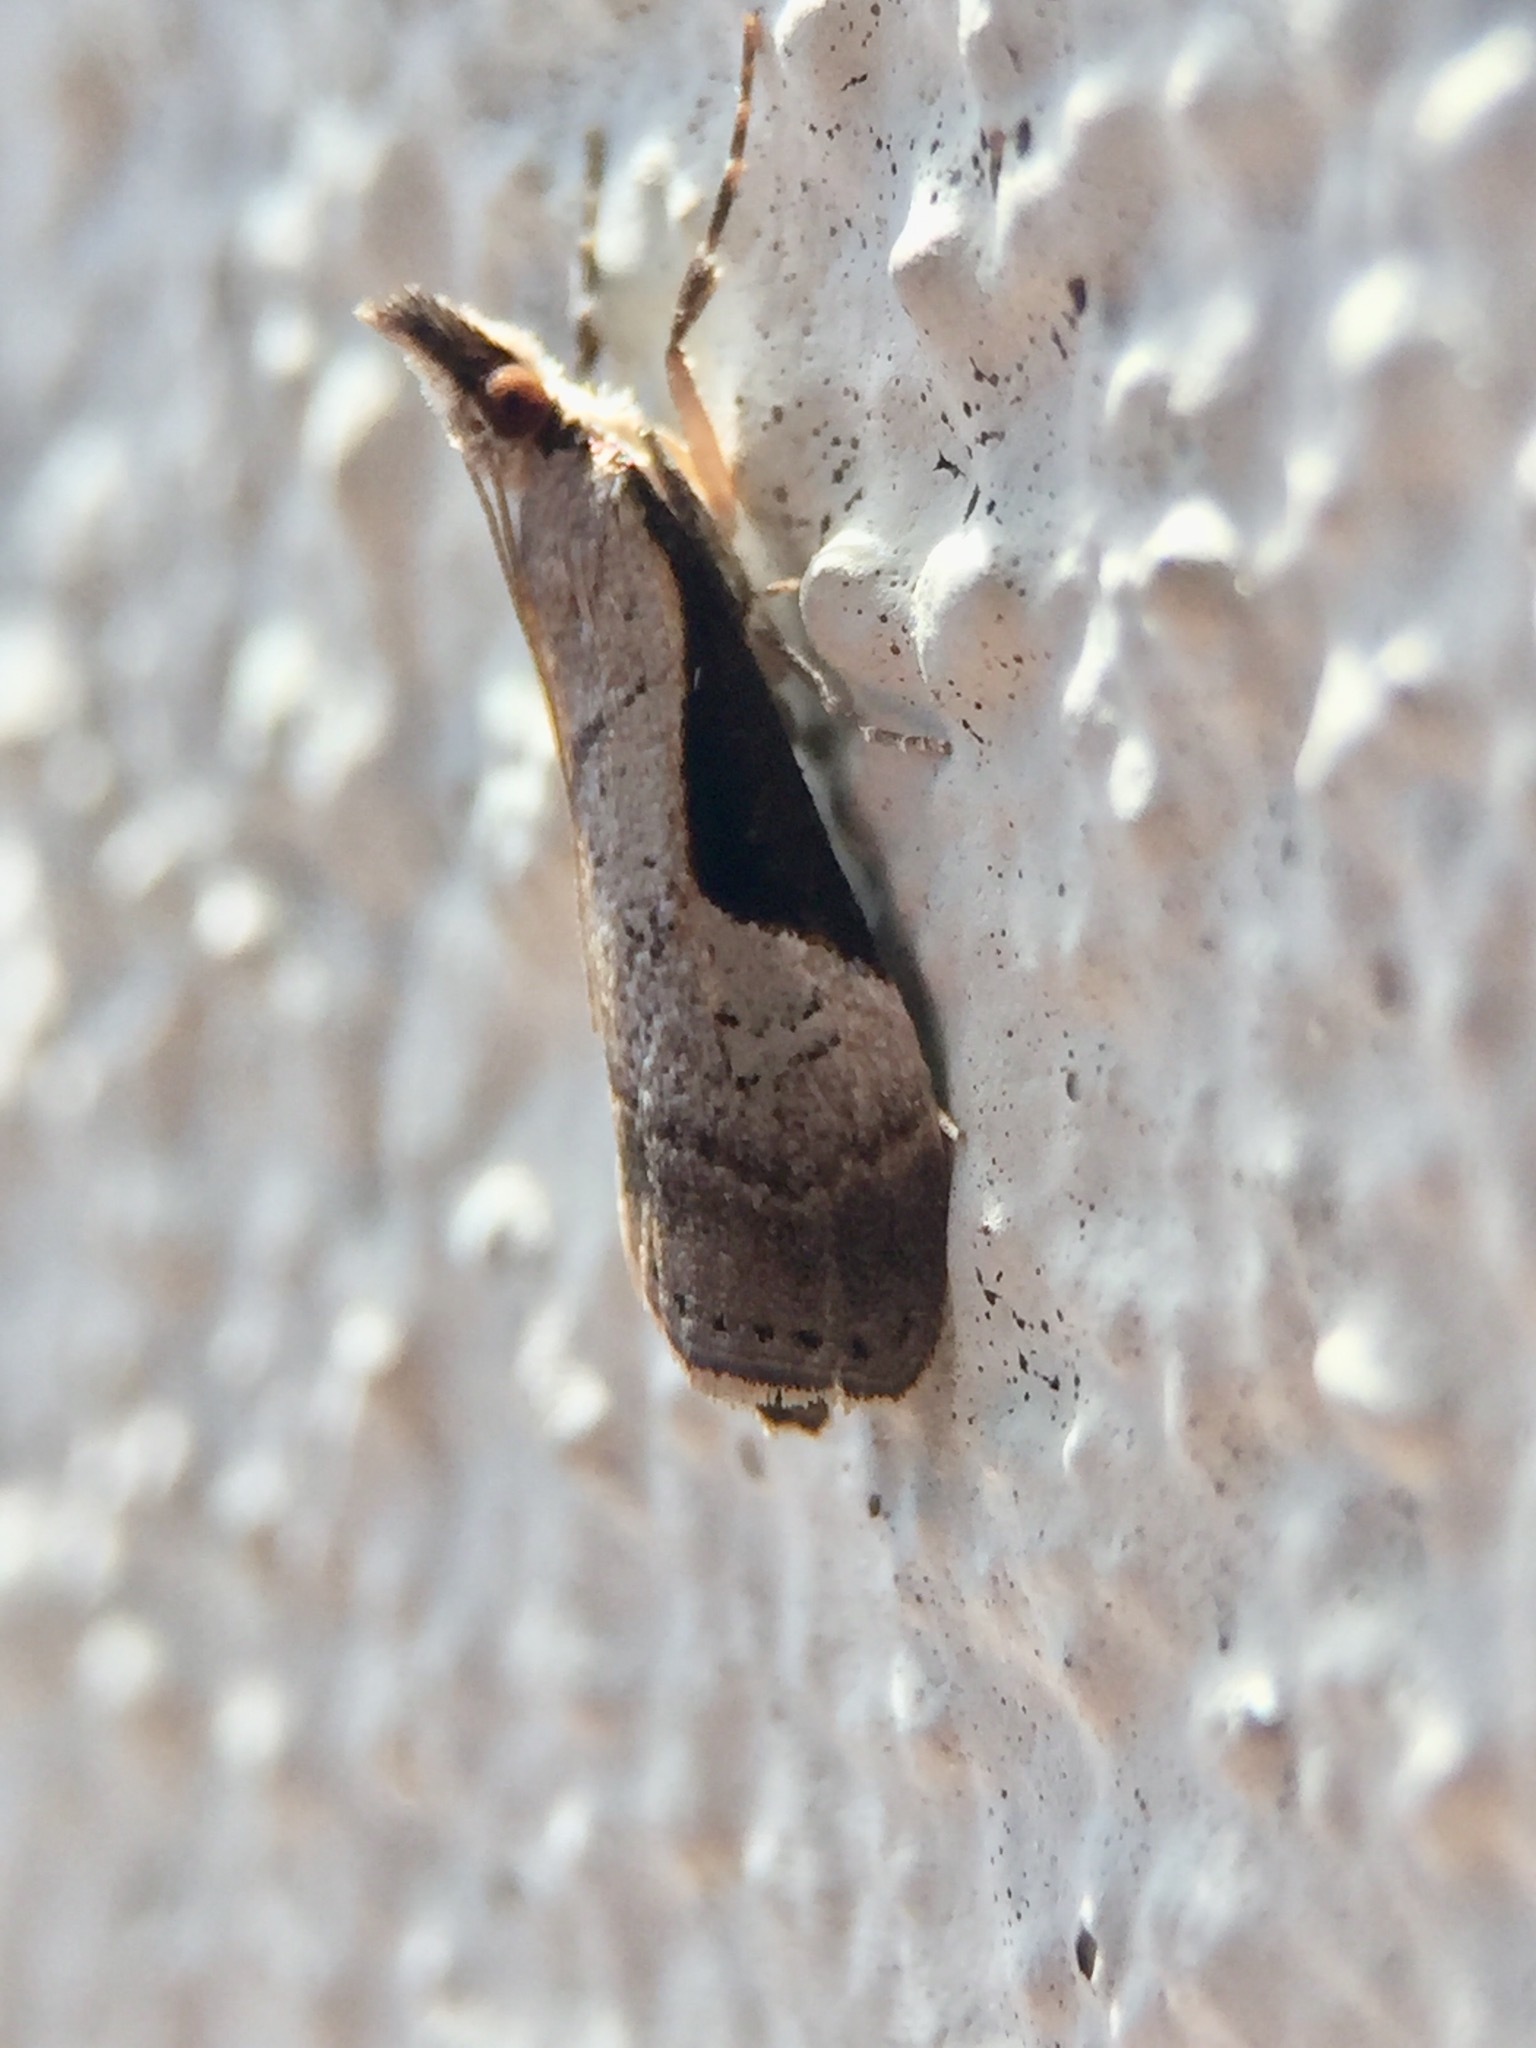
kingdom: Animalia
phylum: Arthropoda
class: Insecta
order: Lepidoptera
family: Crambidae
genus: Eudonia
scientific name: Eudonia pongalis
